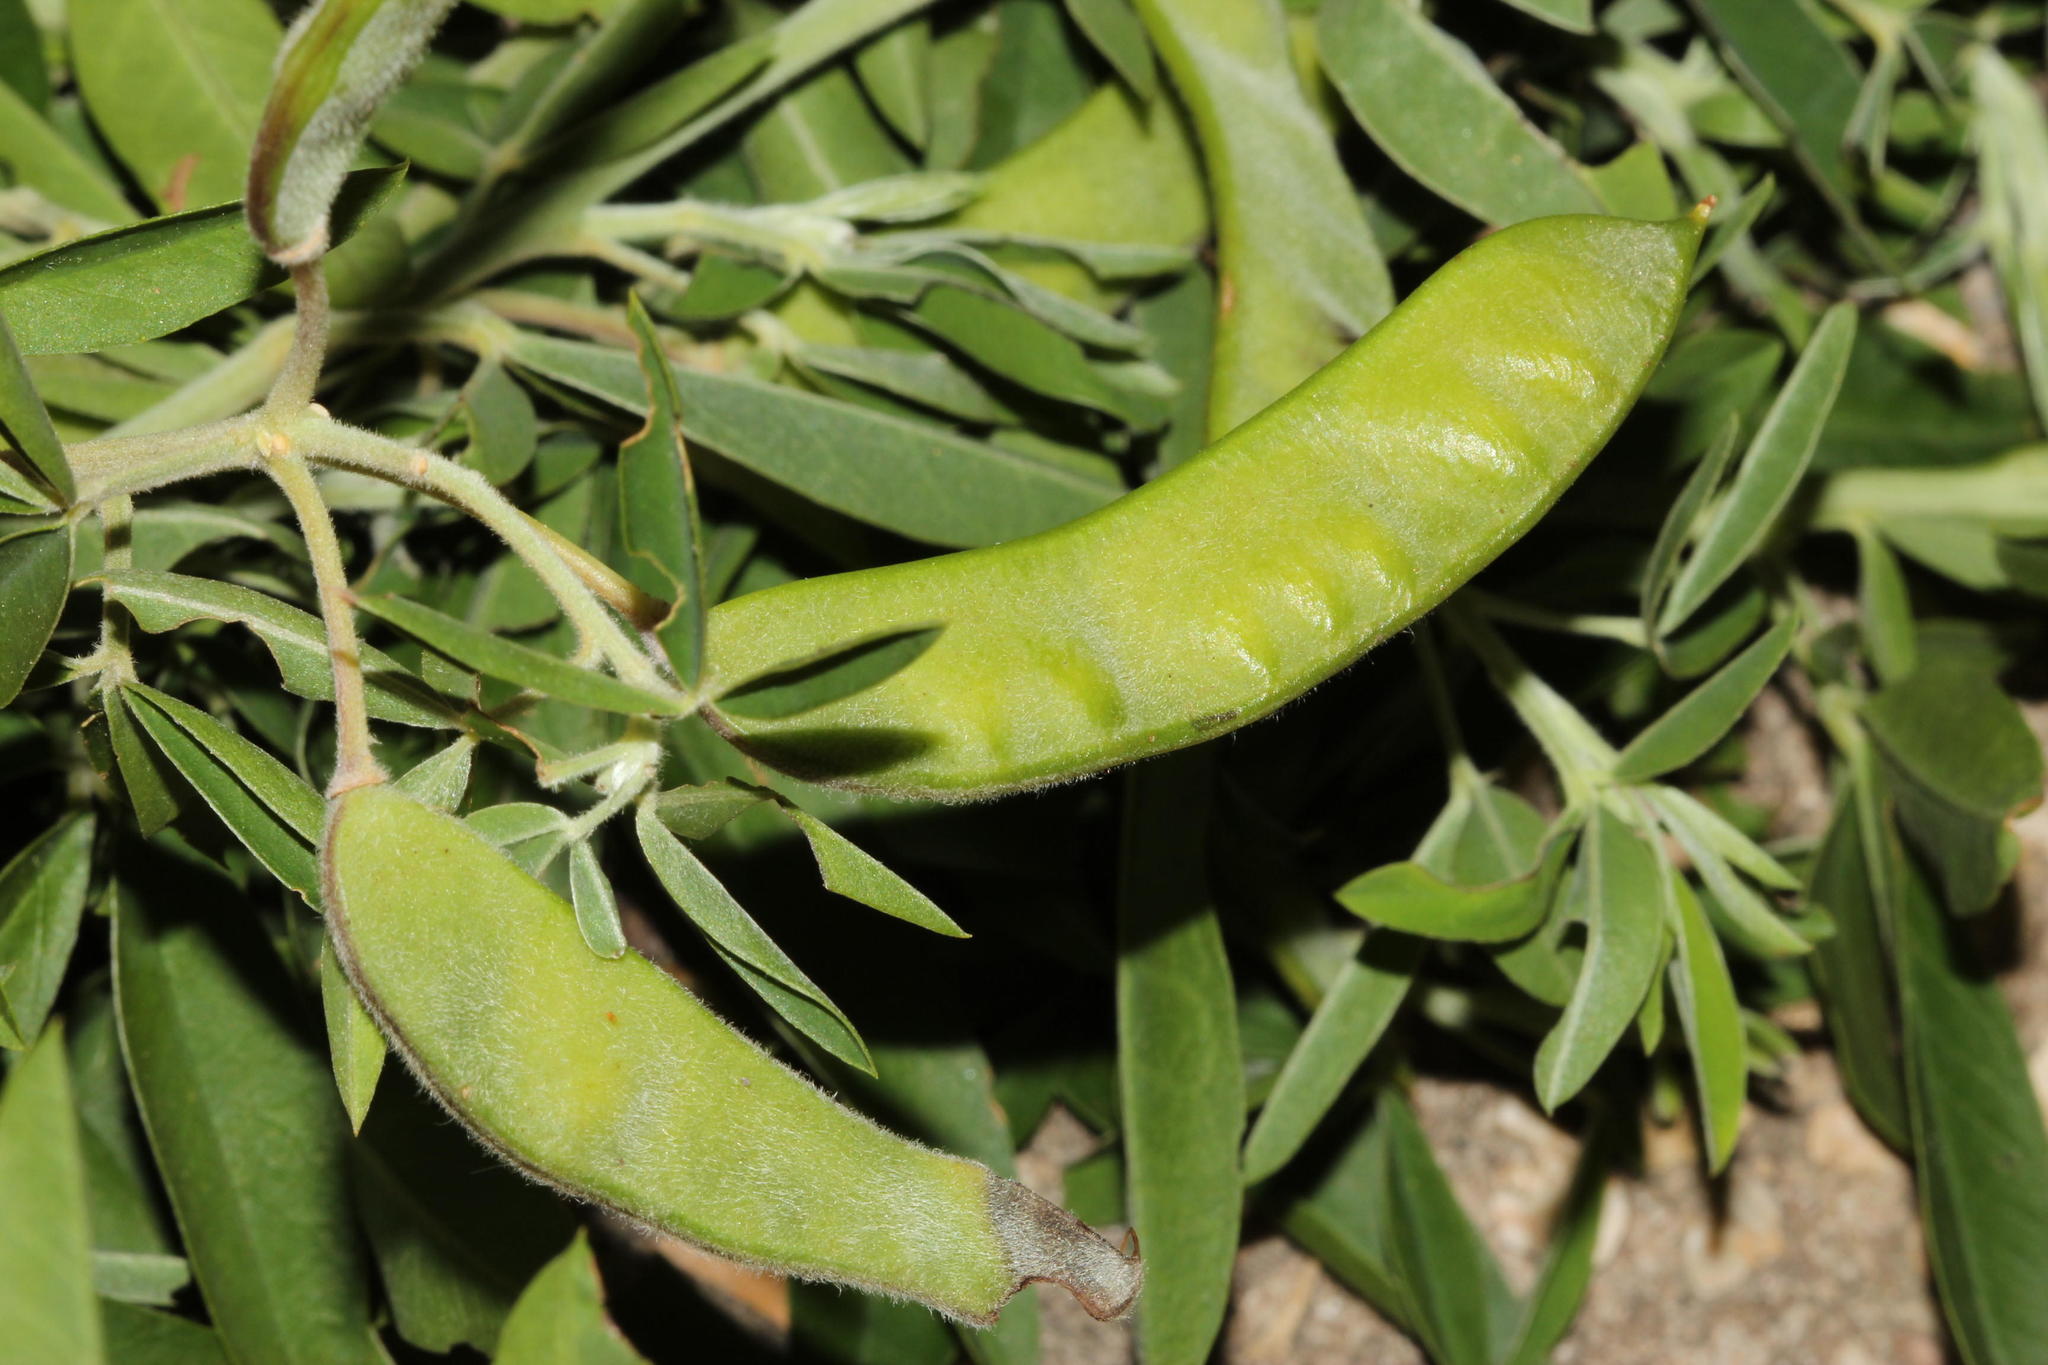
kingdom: Plantae
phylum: Tracheophyta
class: Magnoliopsida
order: Fabales
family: Fabaceae
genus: Chamaecytisus
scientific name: Chamaecytisus prolifer
